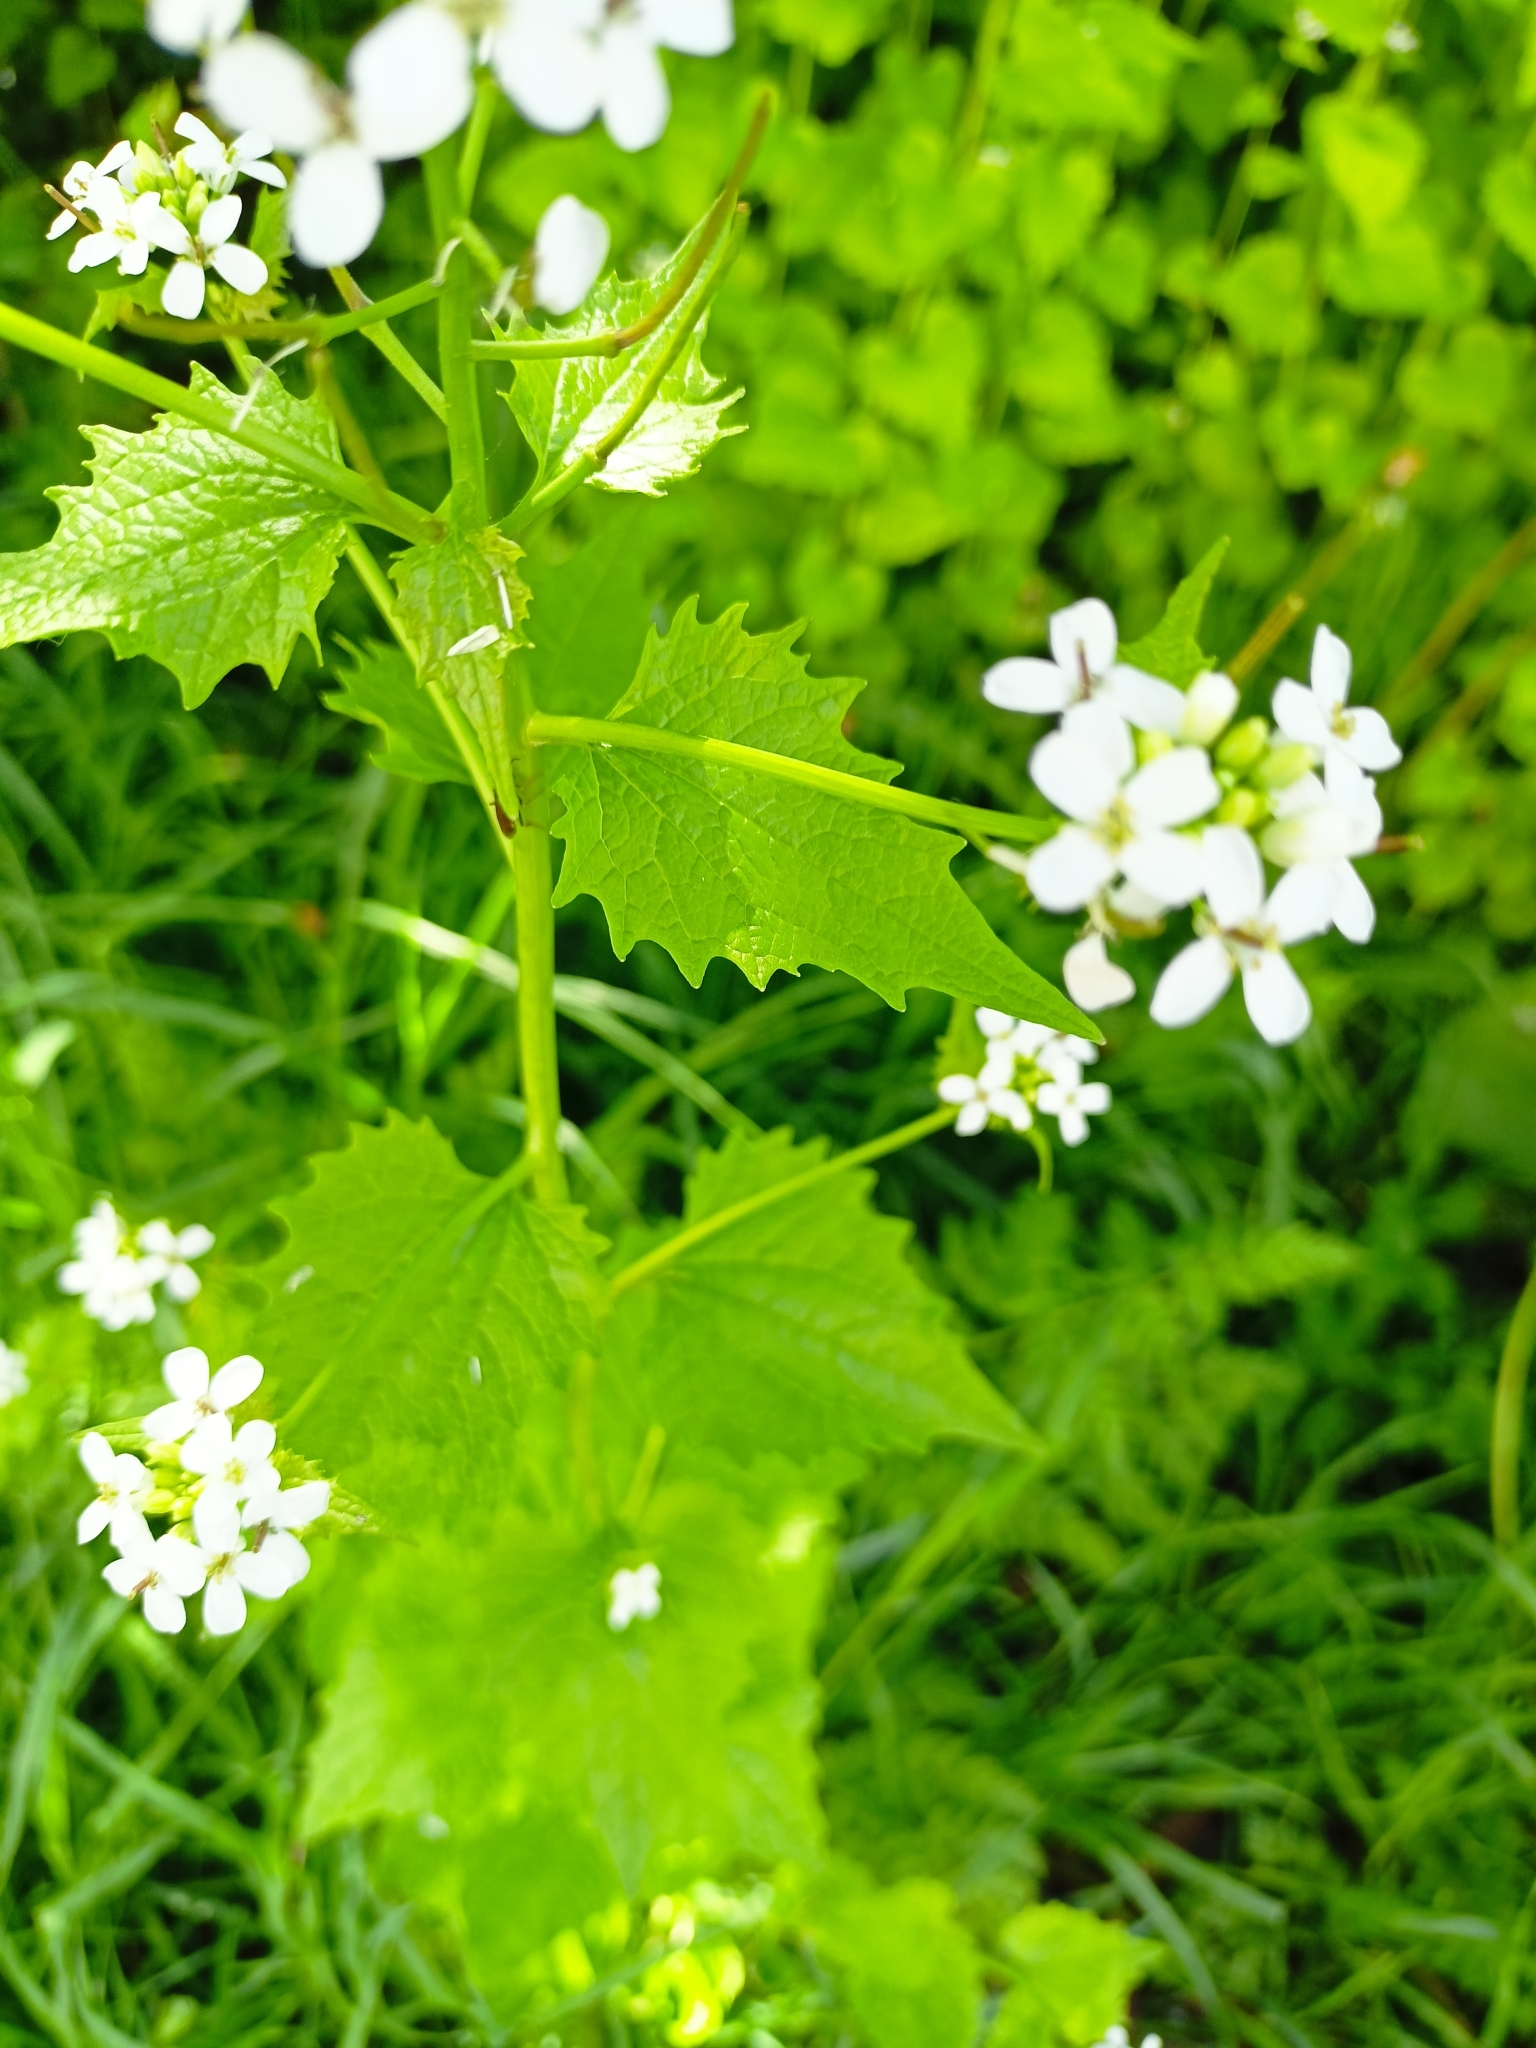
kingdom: Plantae
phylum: Tracheophyta
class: Magnoliopsida
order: Brassicales
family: Brassicaceae
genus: Alliaria
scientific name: Alliaria petiolata
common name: Garlic mustard
